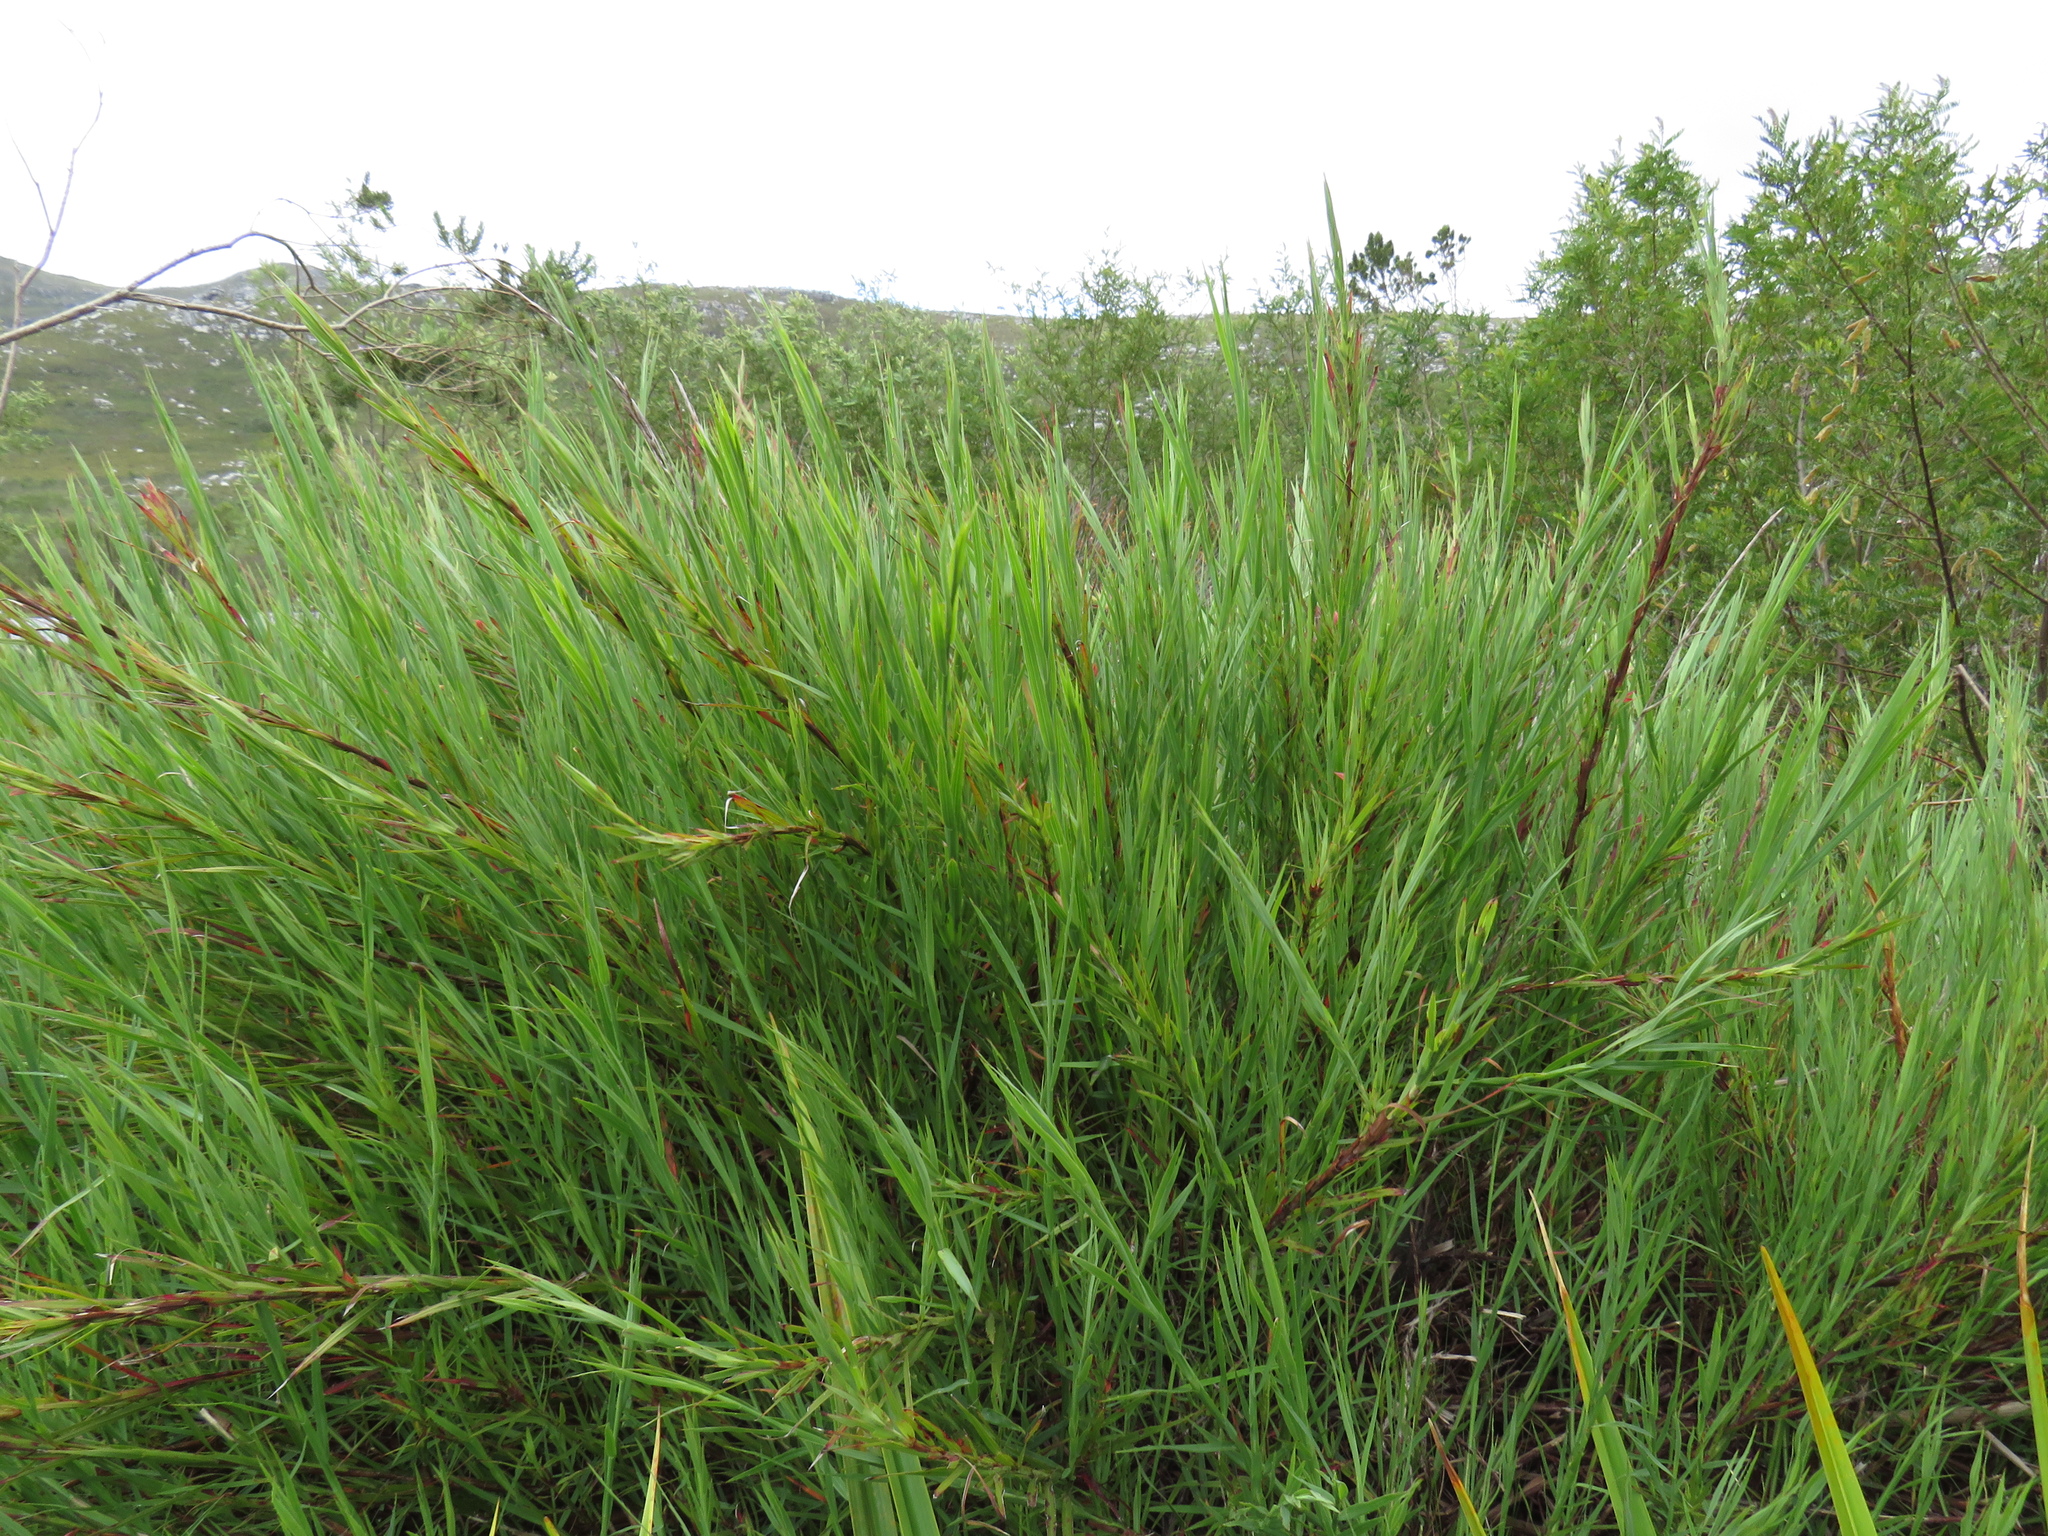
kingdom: Plantae
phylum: Tracheophyta
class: Magnoliopsida
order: Rosales
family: Rosaceae
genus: Cliffortia
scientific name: Cliffortia graminea
